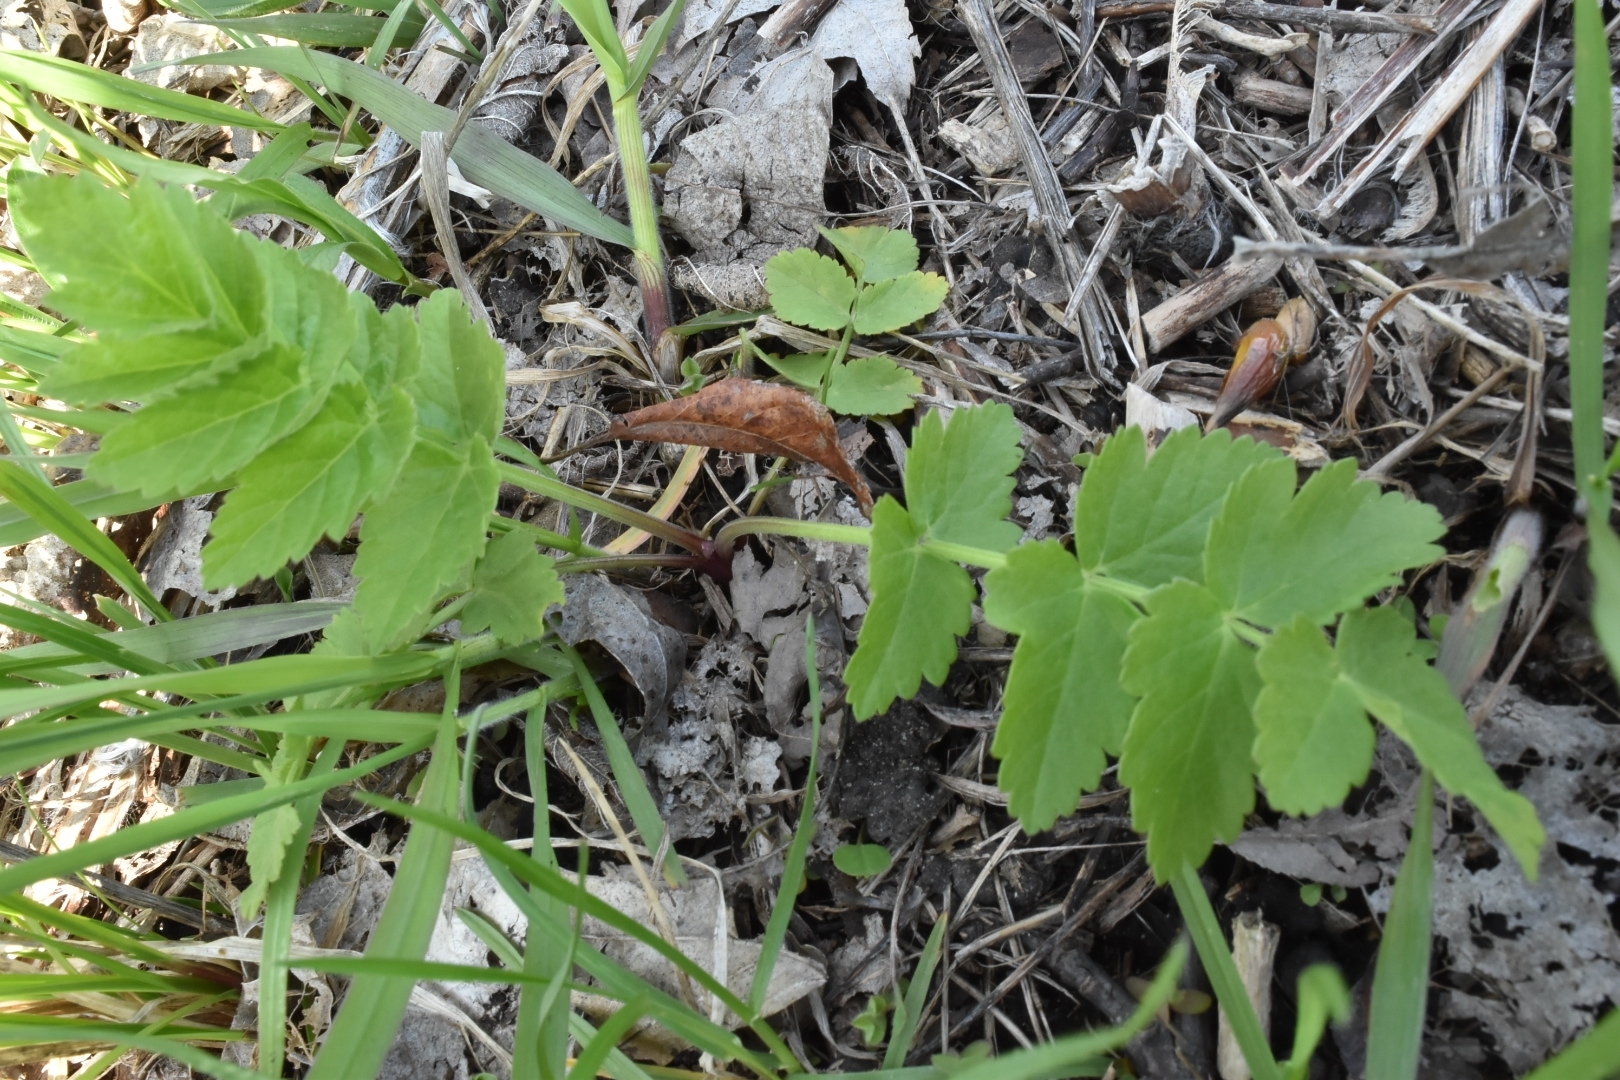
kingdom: Plantae
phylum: Tracheophyta
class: Magnoliopsida
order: Apiales
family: Apiaceae
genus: Pastinaca
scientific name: Pastinaca sativa
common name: Wild parsnip
